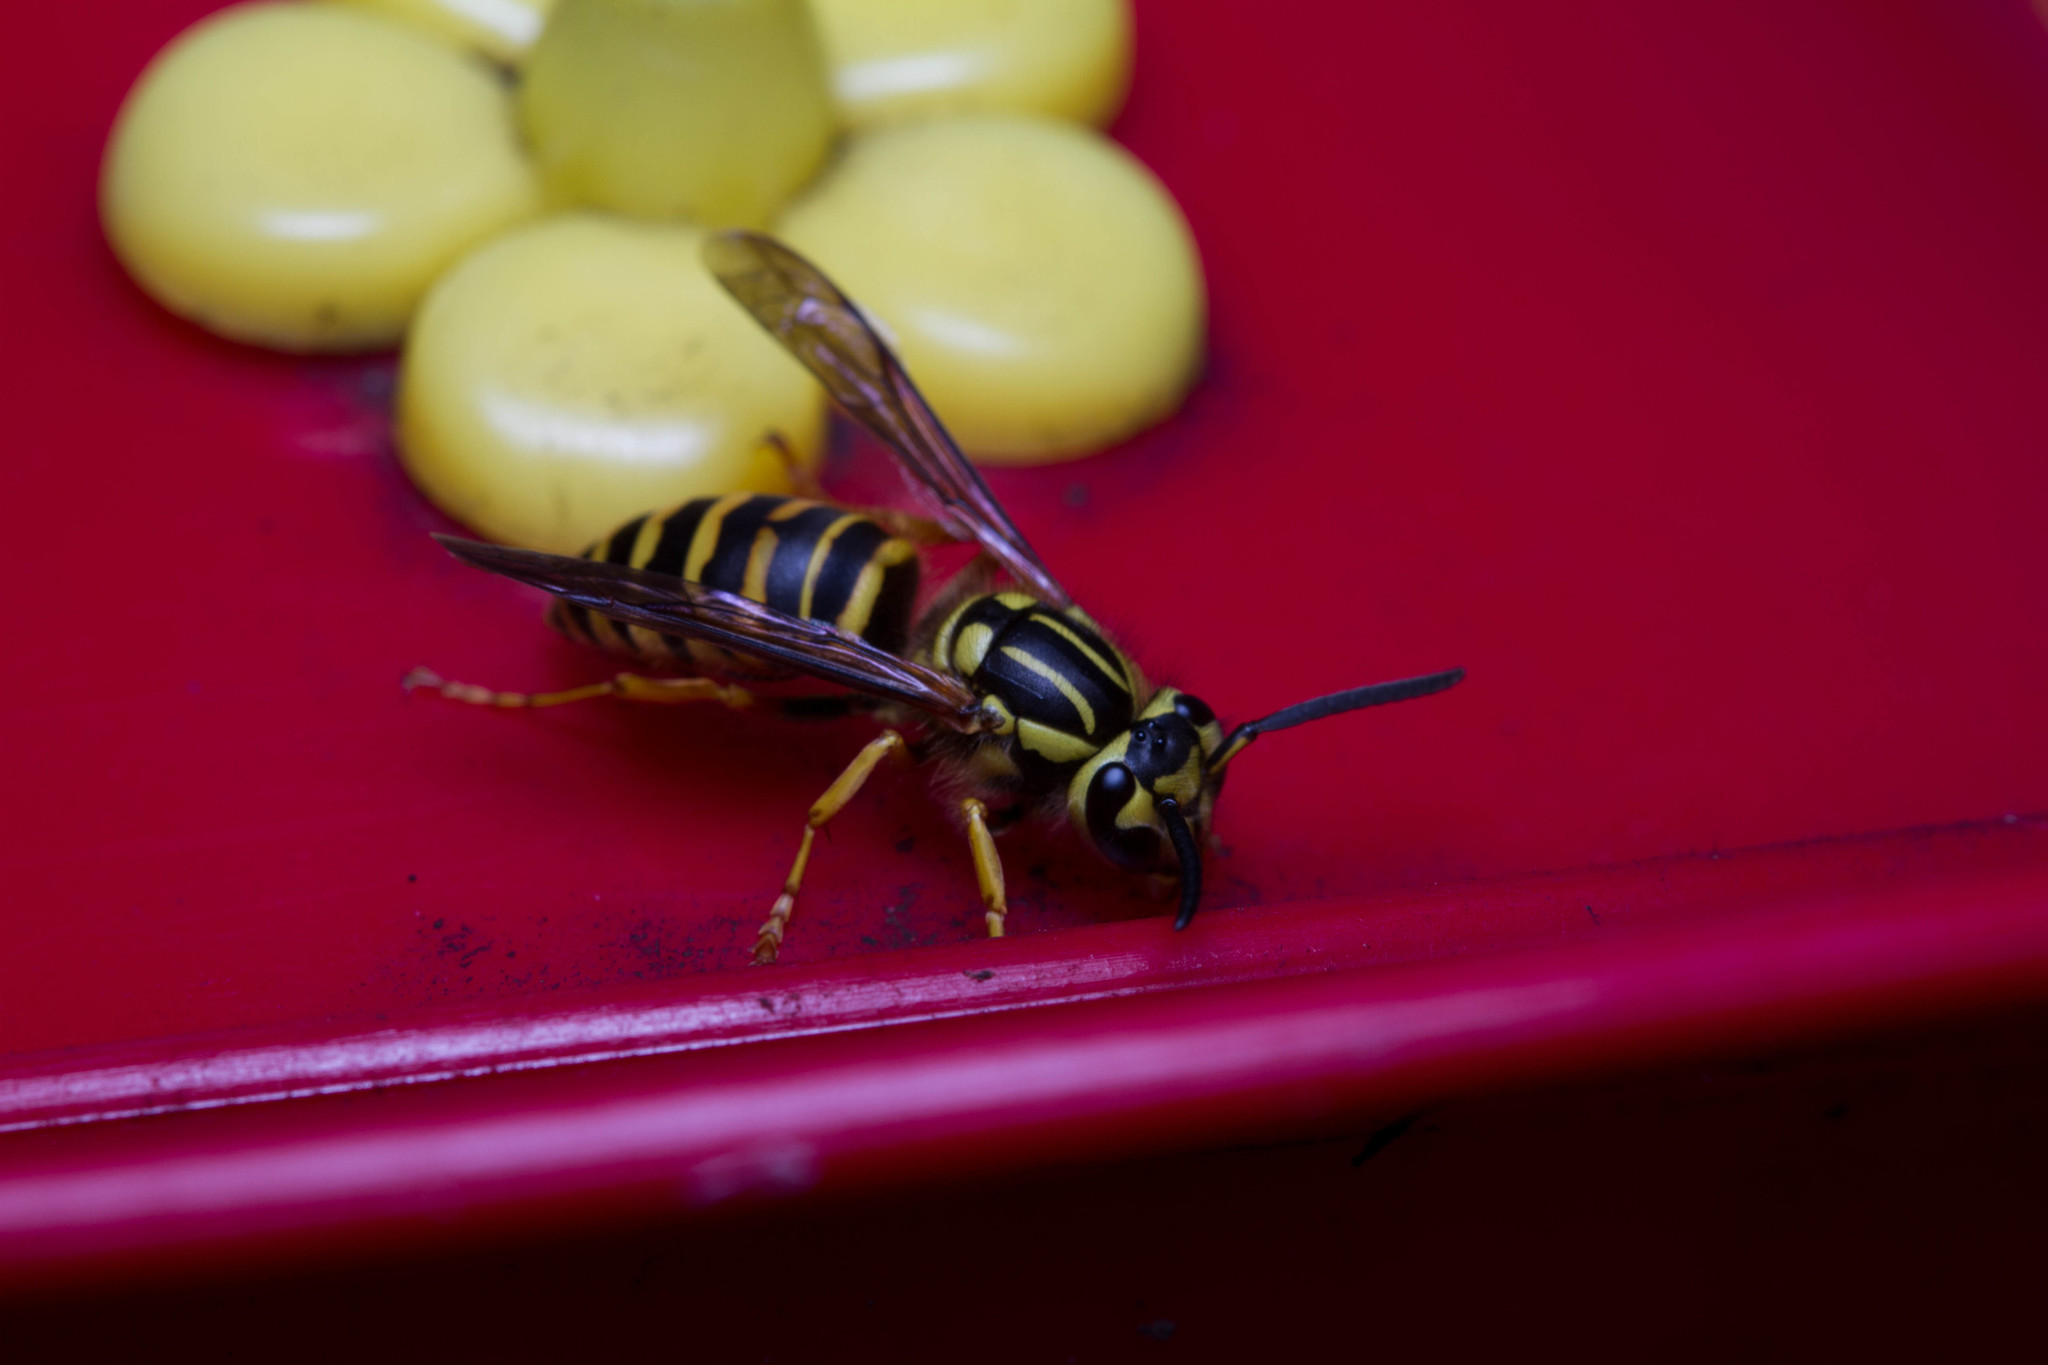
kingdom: Animalia
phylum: Arthropoda
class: Insecta
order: Hymenoptera
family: Vespidae
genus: Vespula
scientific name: Vespula squamosa
